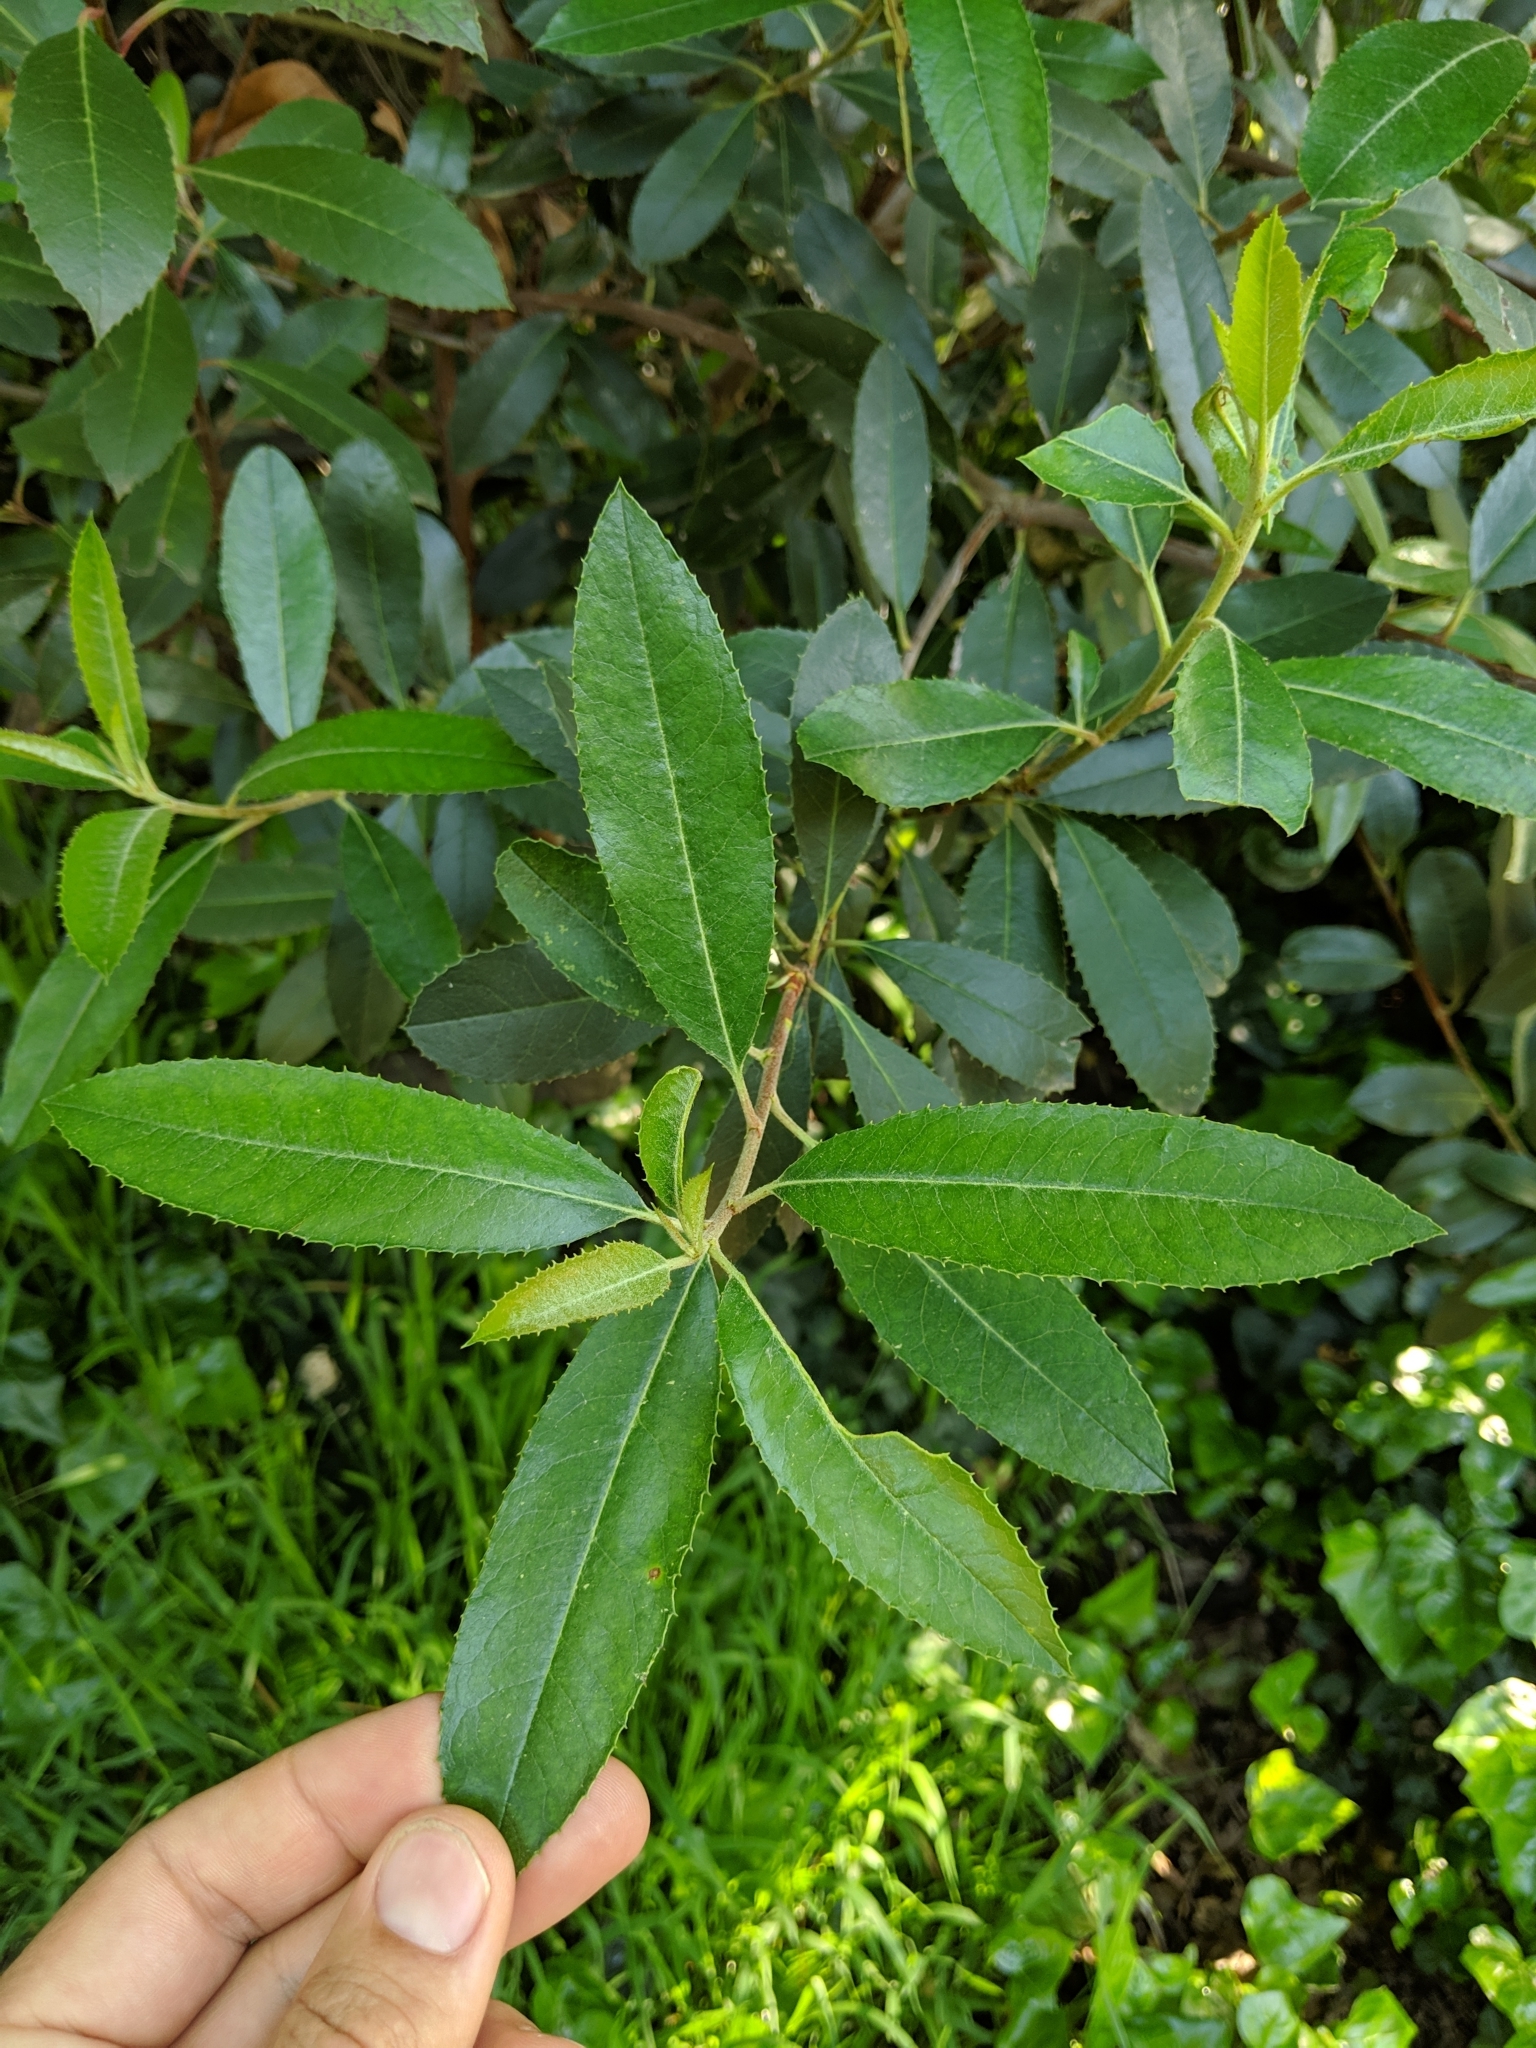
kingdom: Plantae
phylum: Tracheophyta
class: Magnoliopsida
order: Rosales
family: Rosaceae
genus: Heteromeles
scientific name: Heteromeles arbutifolia
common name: California-holly
